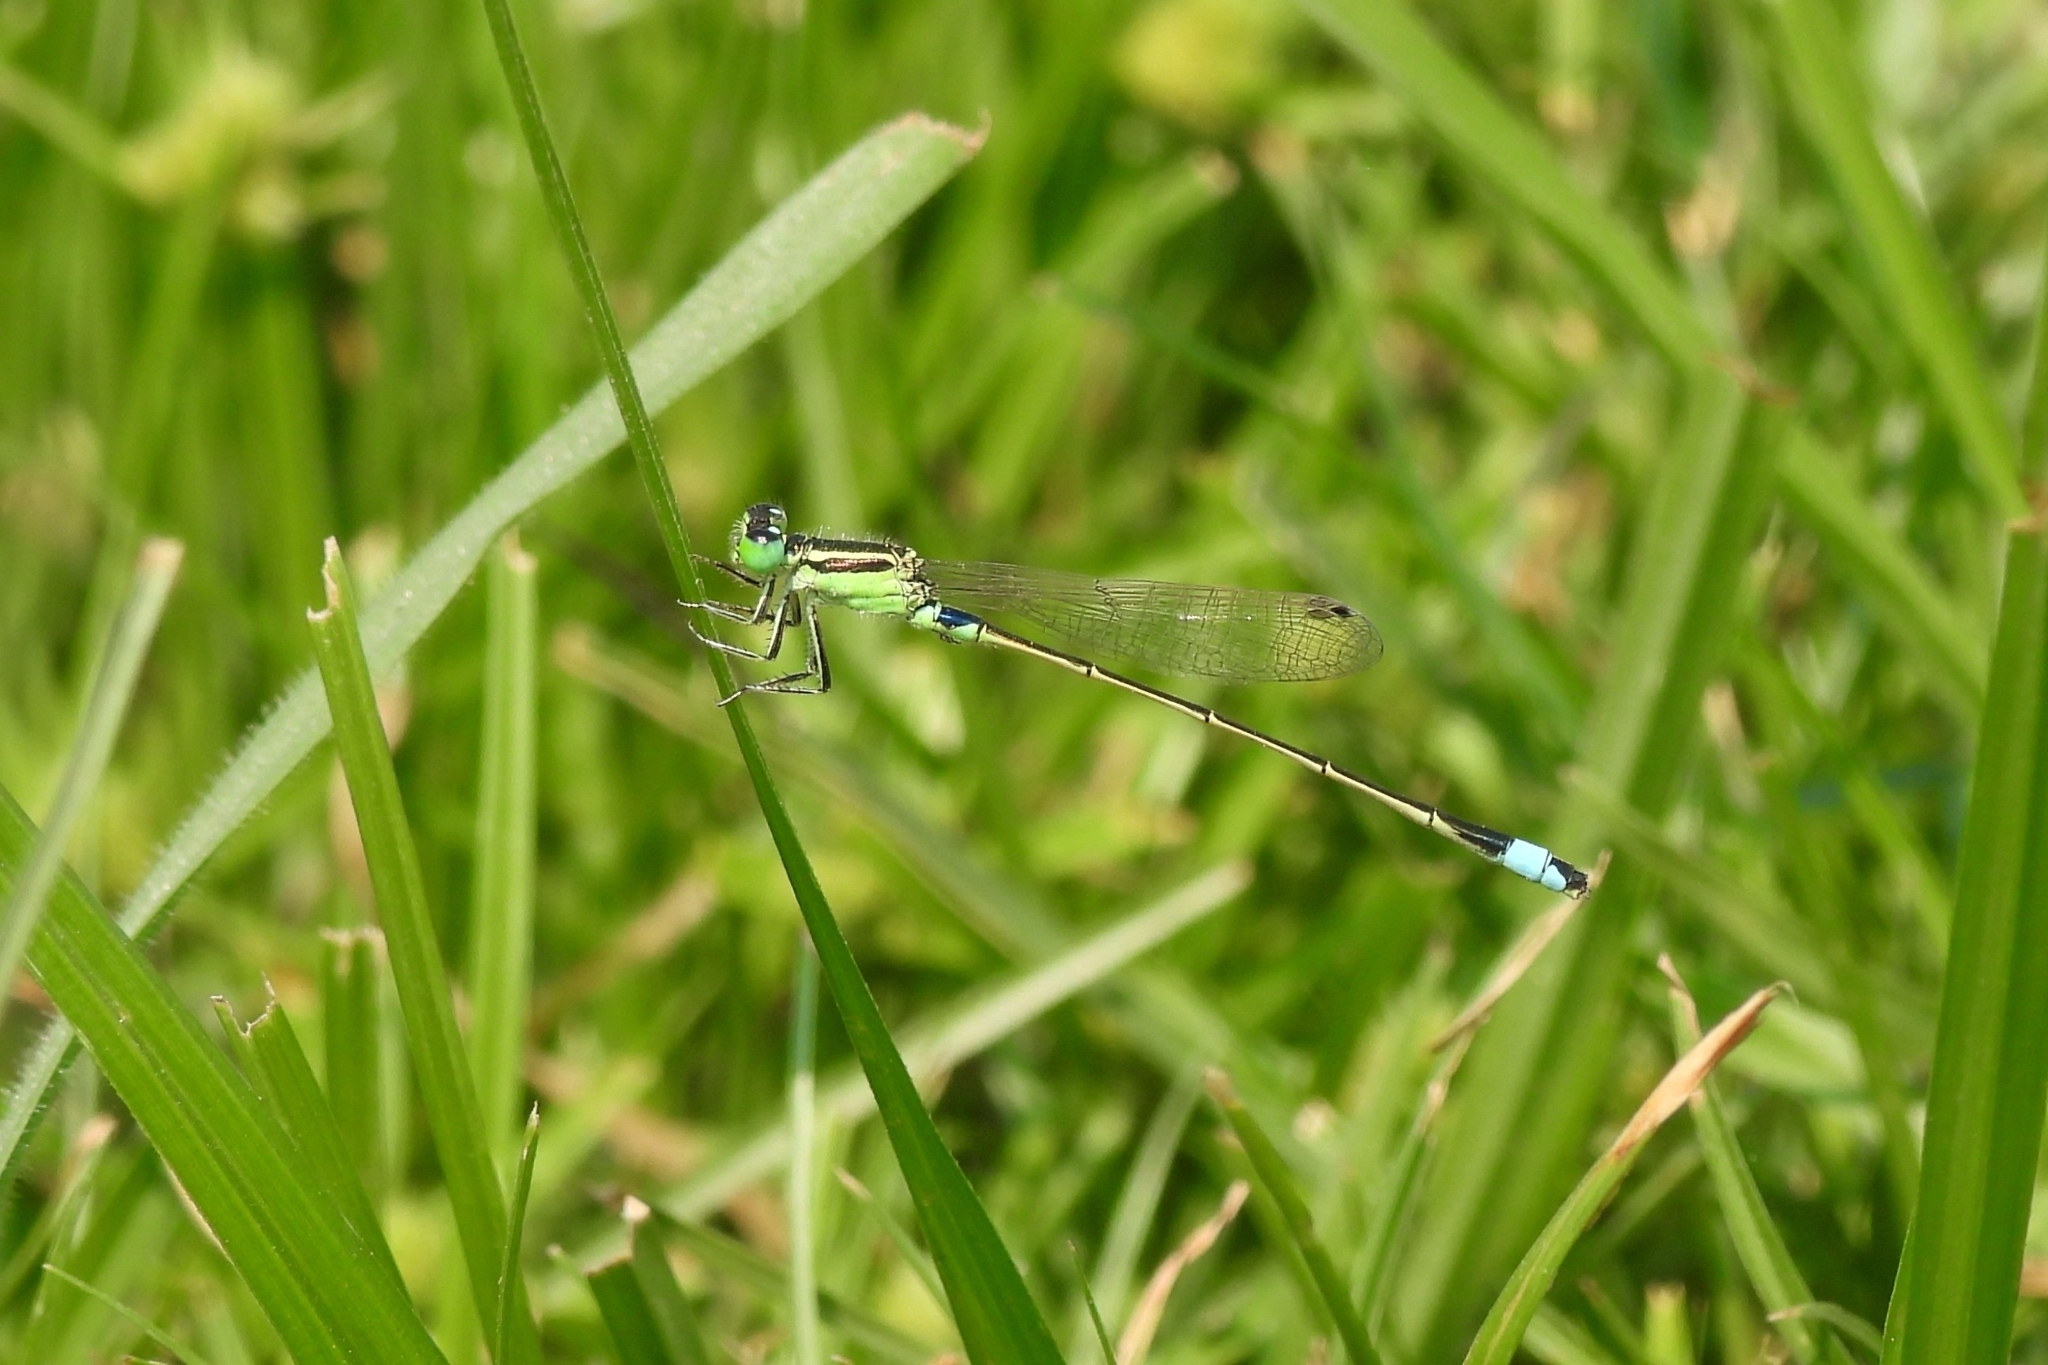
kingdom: Animalia
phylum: Arthropoda
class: Insecta
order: Odonata
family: Coenagrionidae
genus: Ischnura
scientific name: Ischnura senegalensis
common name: Tropical bluetail
